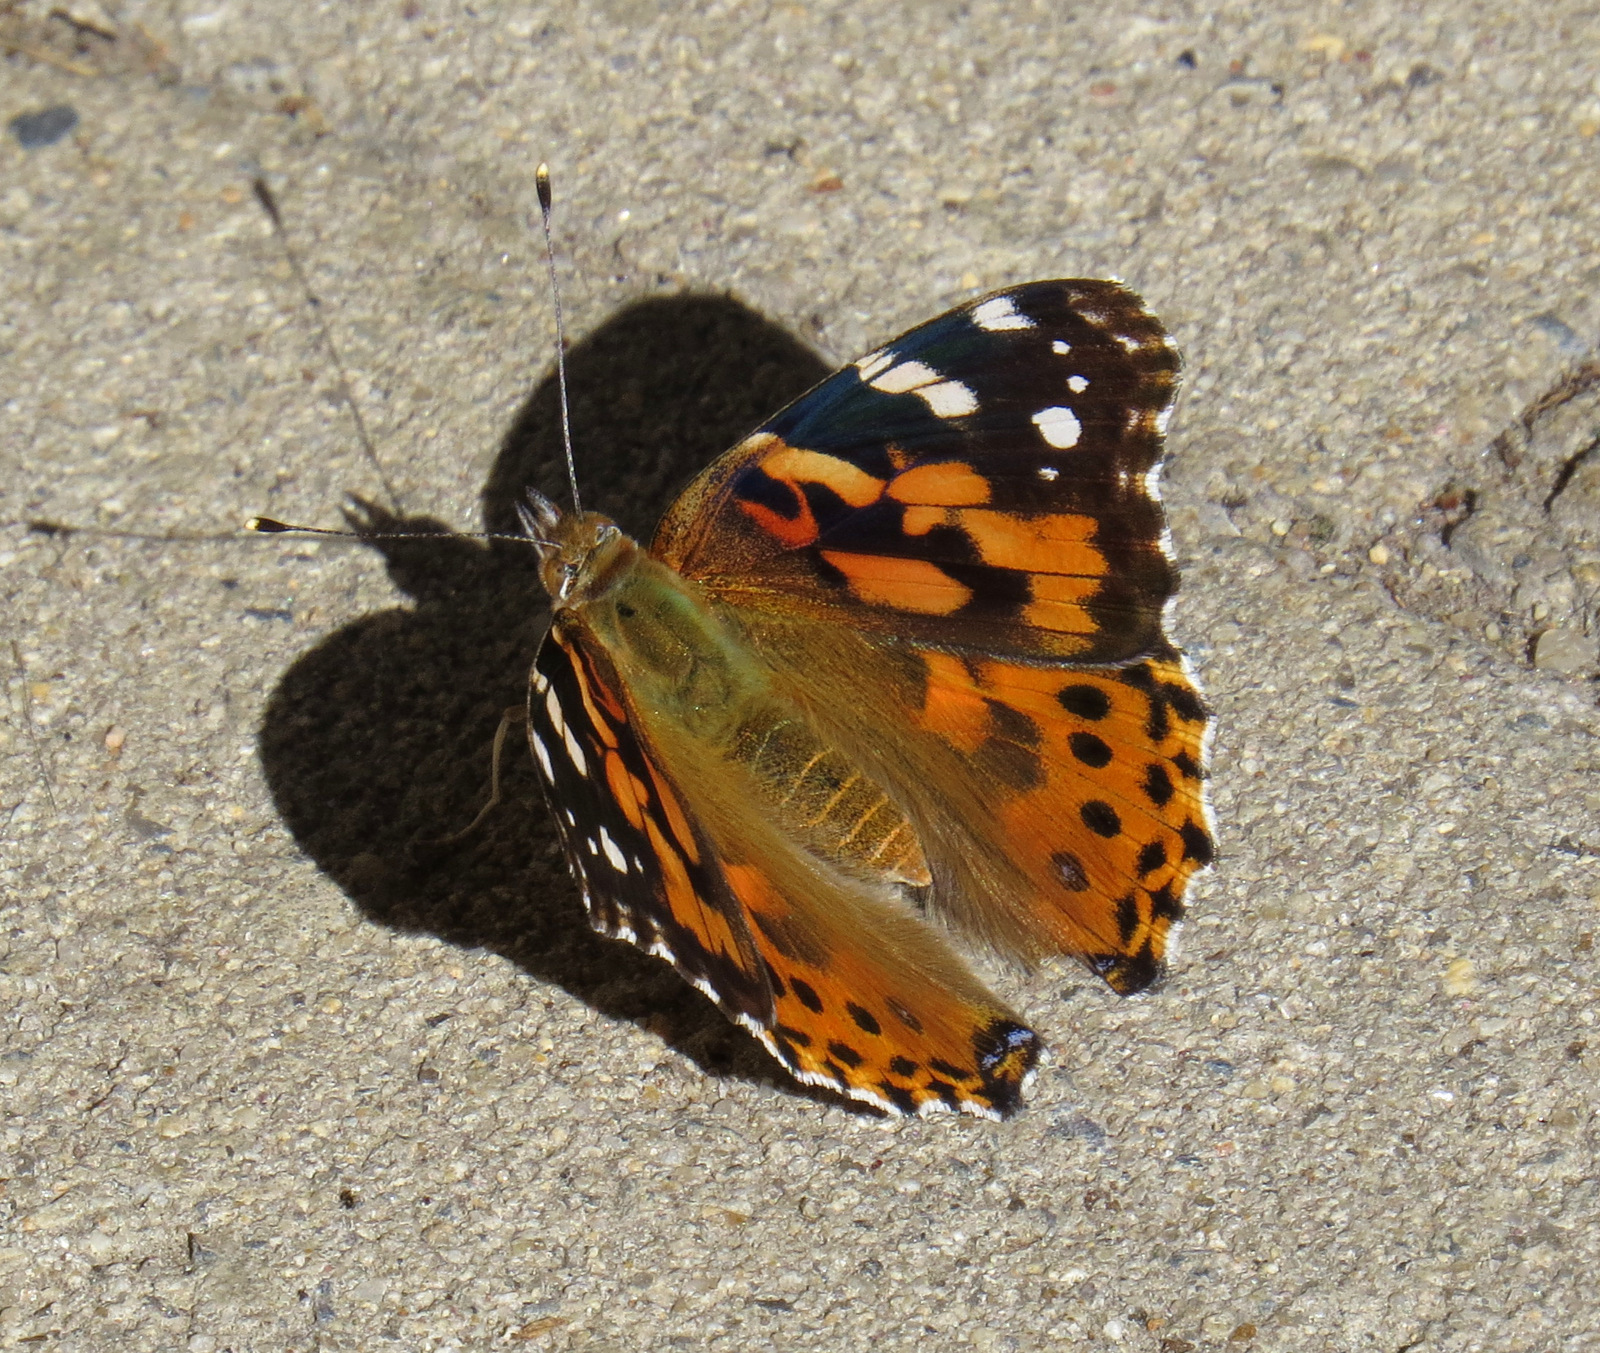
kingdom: Animalia
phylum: Arthropoda
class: Insecta
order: Lepidoptera
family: Nymphalidae
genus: Vanessa
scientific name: Vanessa cardui
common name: Painted lady
